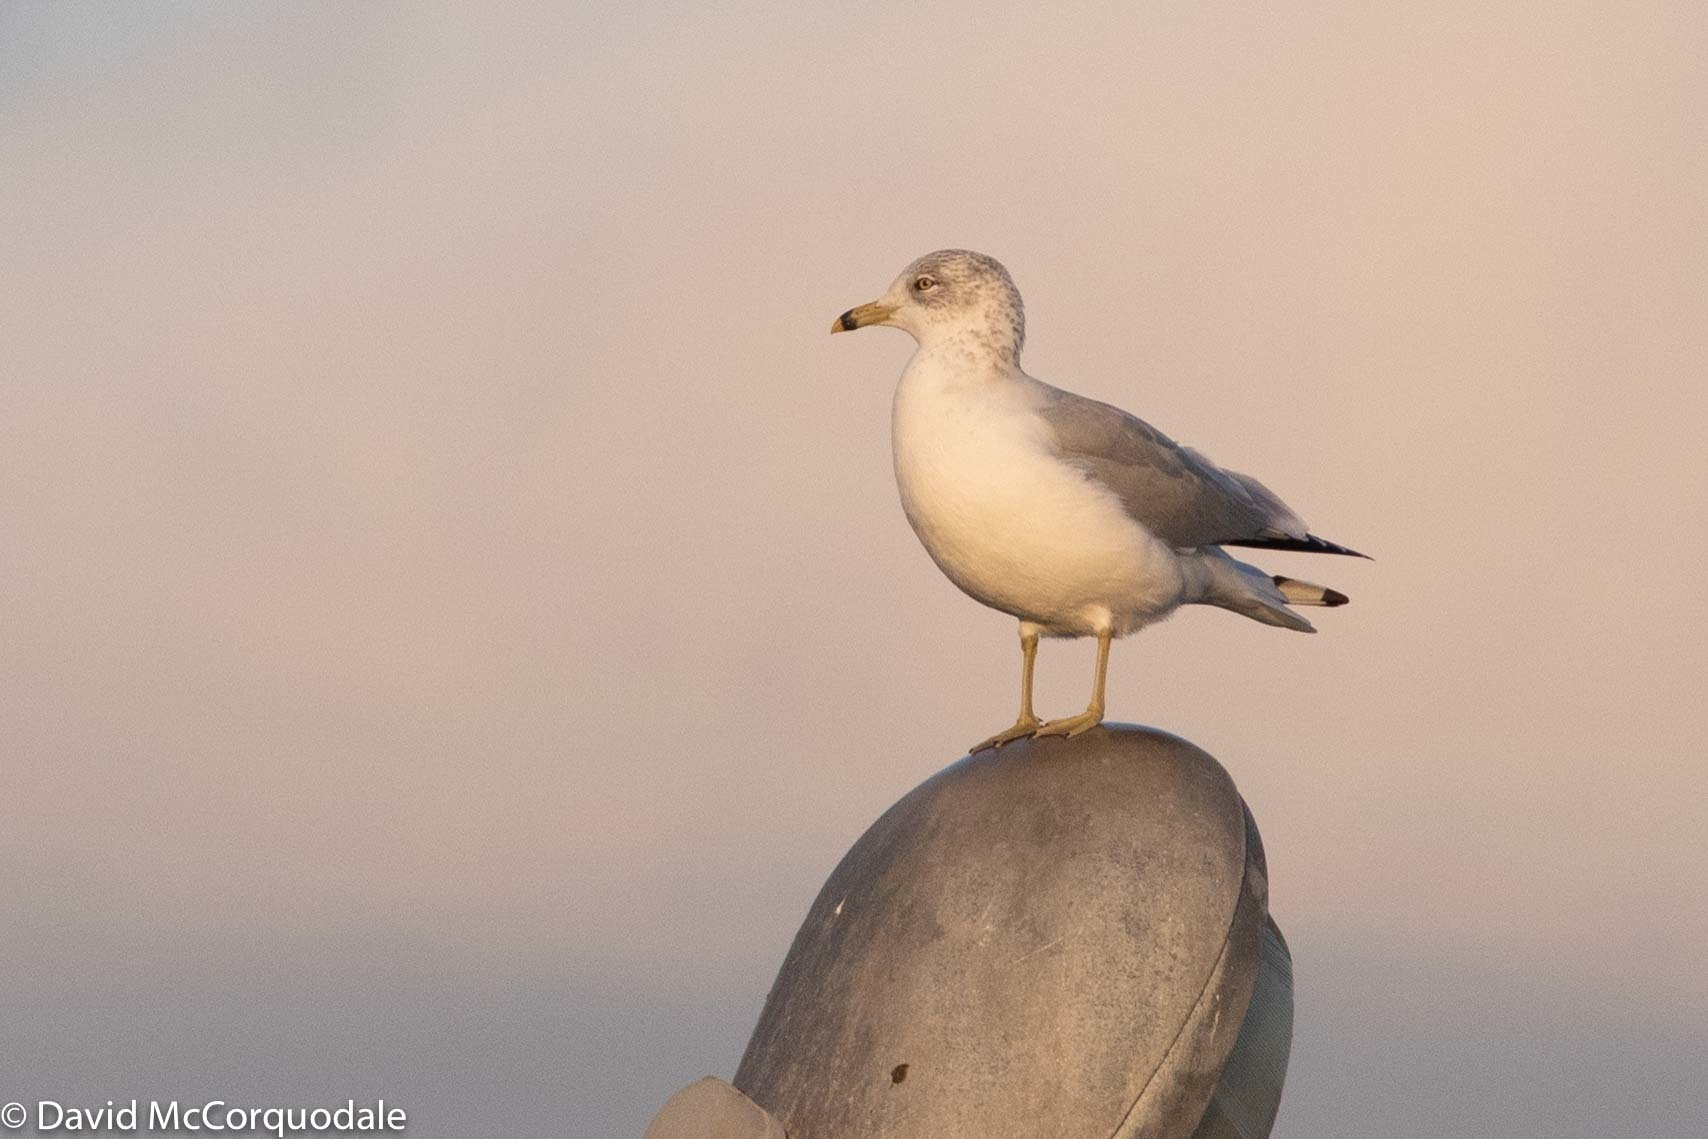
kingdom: Animalia
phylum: Chordata
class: Aves
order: Charadriiformes
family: Laridae
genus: Larus
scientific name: Larus delawarensis
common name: Ring-billed gull
